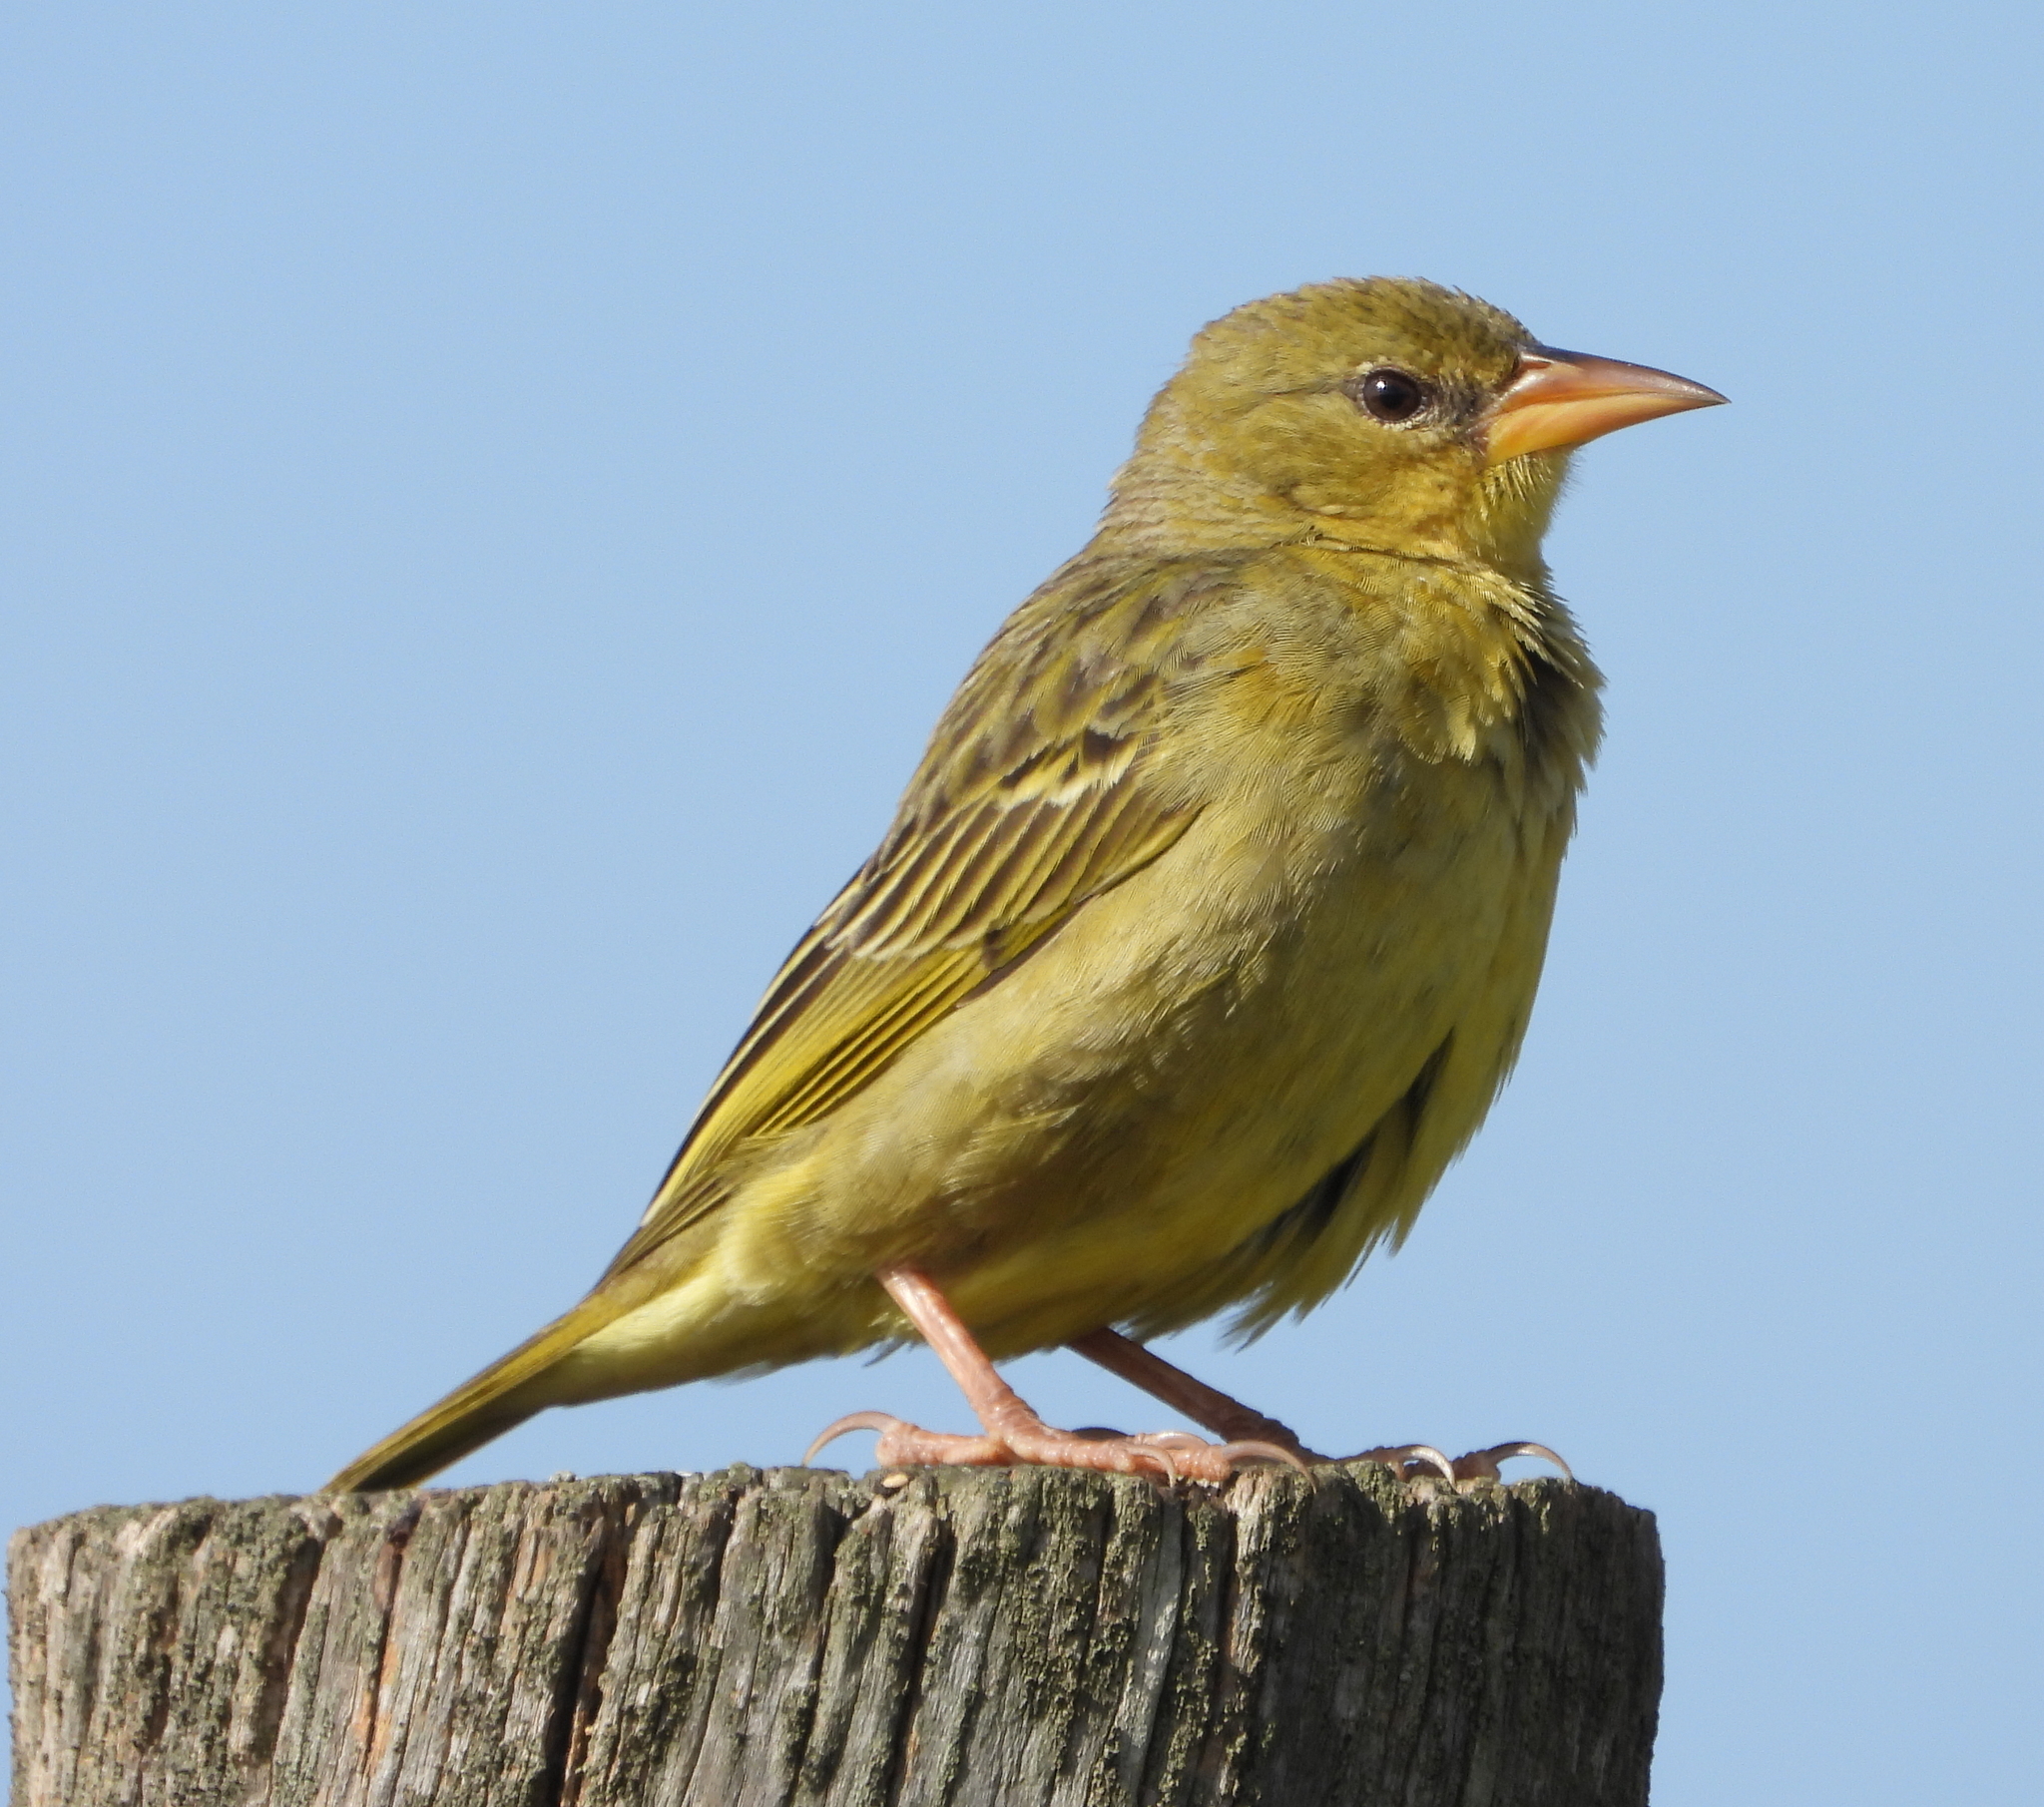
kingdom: Animalia
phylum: Chordata
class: Aves
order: Passeriformes
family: Ploceidae
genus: Ploceus
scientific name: Ploceus capensis
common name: Cape weaver
